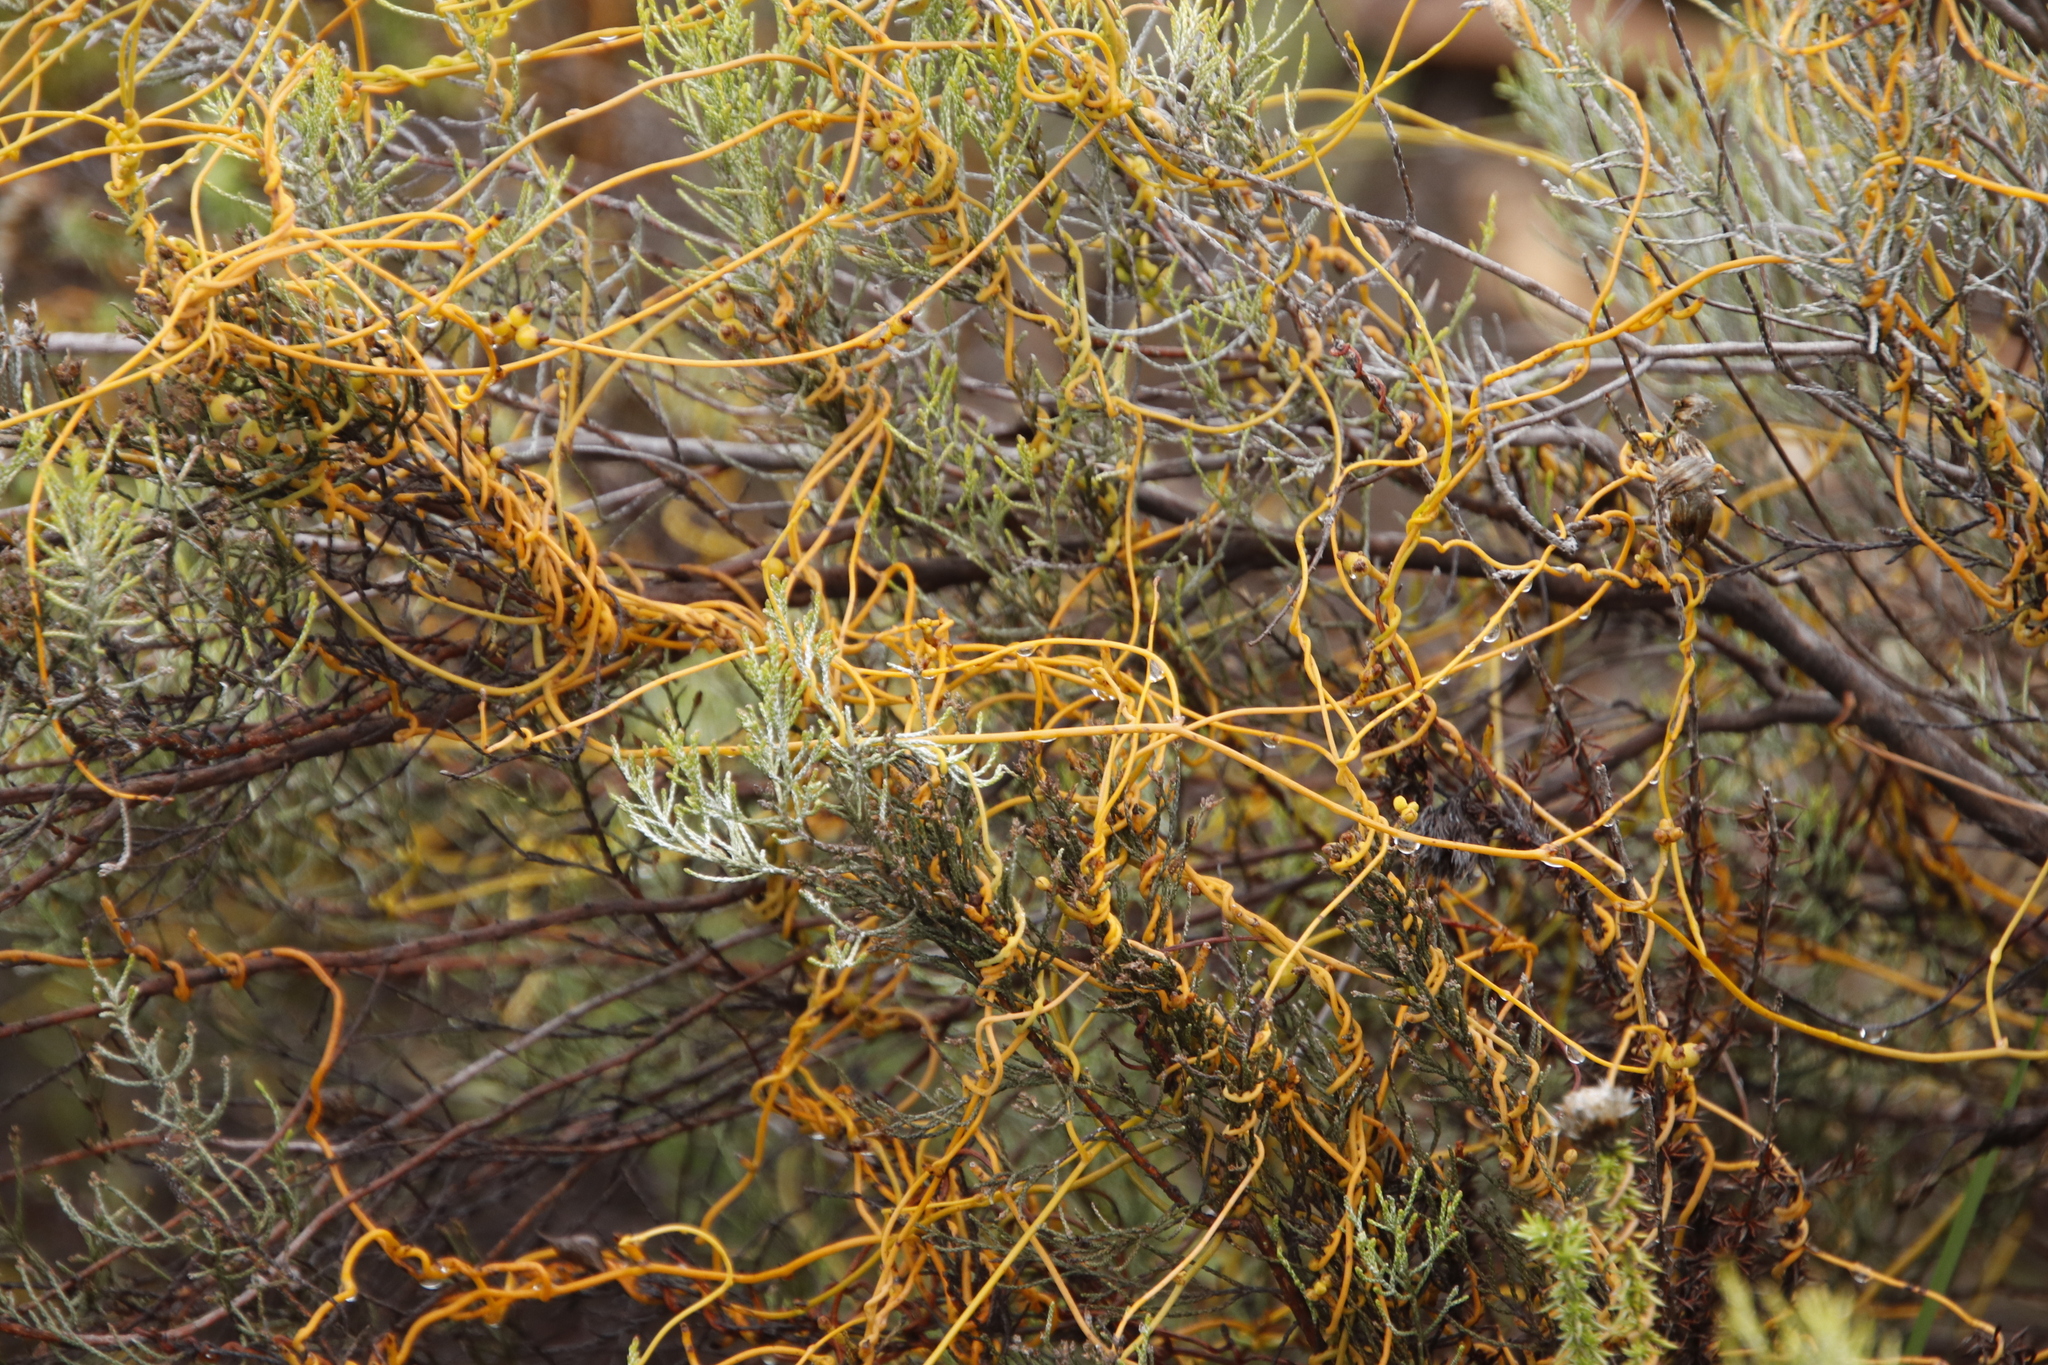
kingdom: Plantae
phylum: Tracheophyta
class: Magnoliopsida
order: Laurales
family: Lauraceae
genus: Cassytha
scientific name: Cassytha ciliolata
